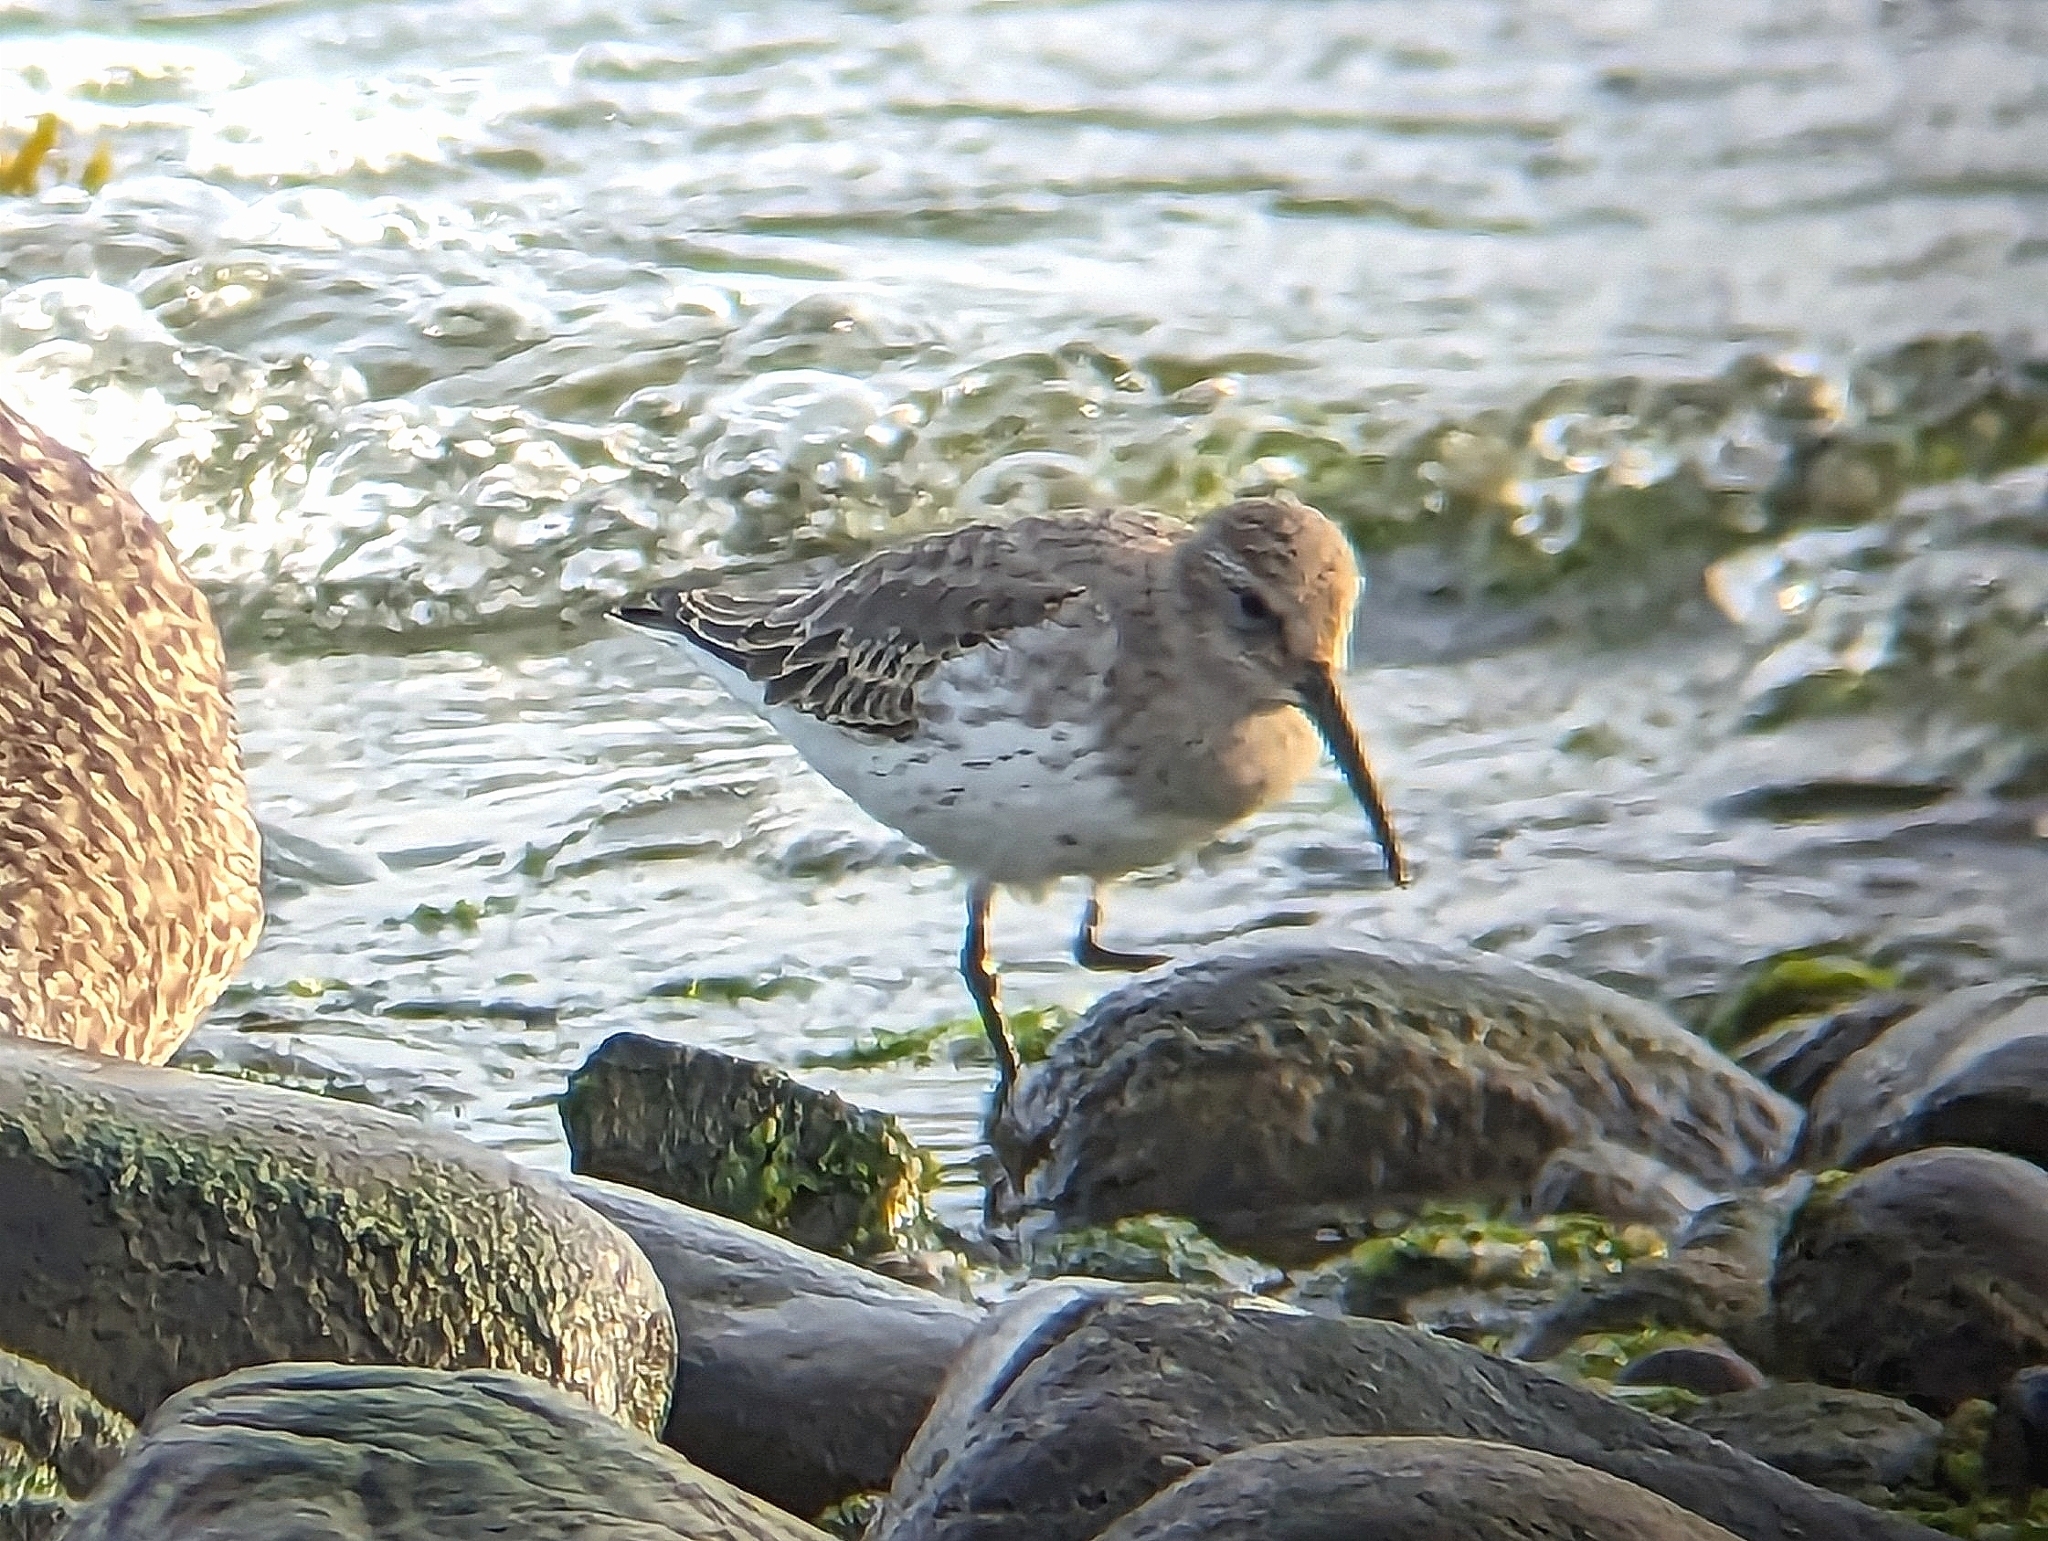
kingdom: Animalia
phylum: Chordata
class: Aves
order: Charadriiformes
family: Scolopacidae
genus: Calidris
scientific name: Calidris alpina
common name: Dunlin
